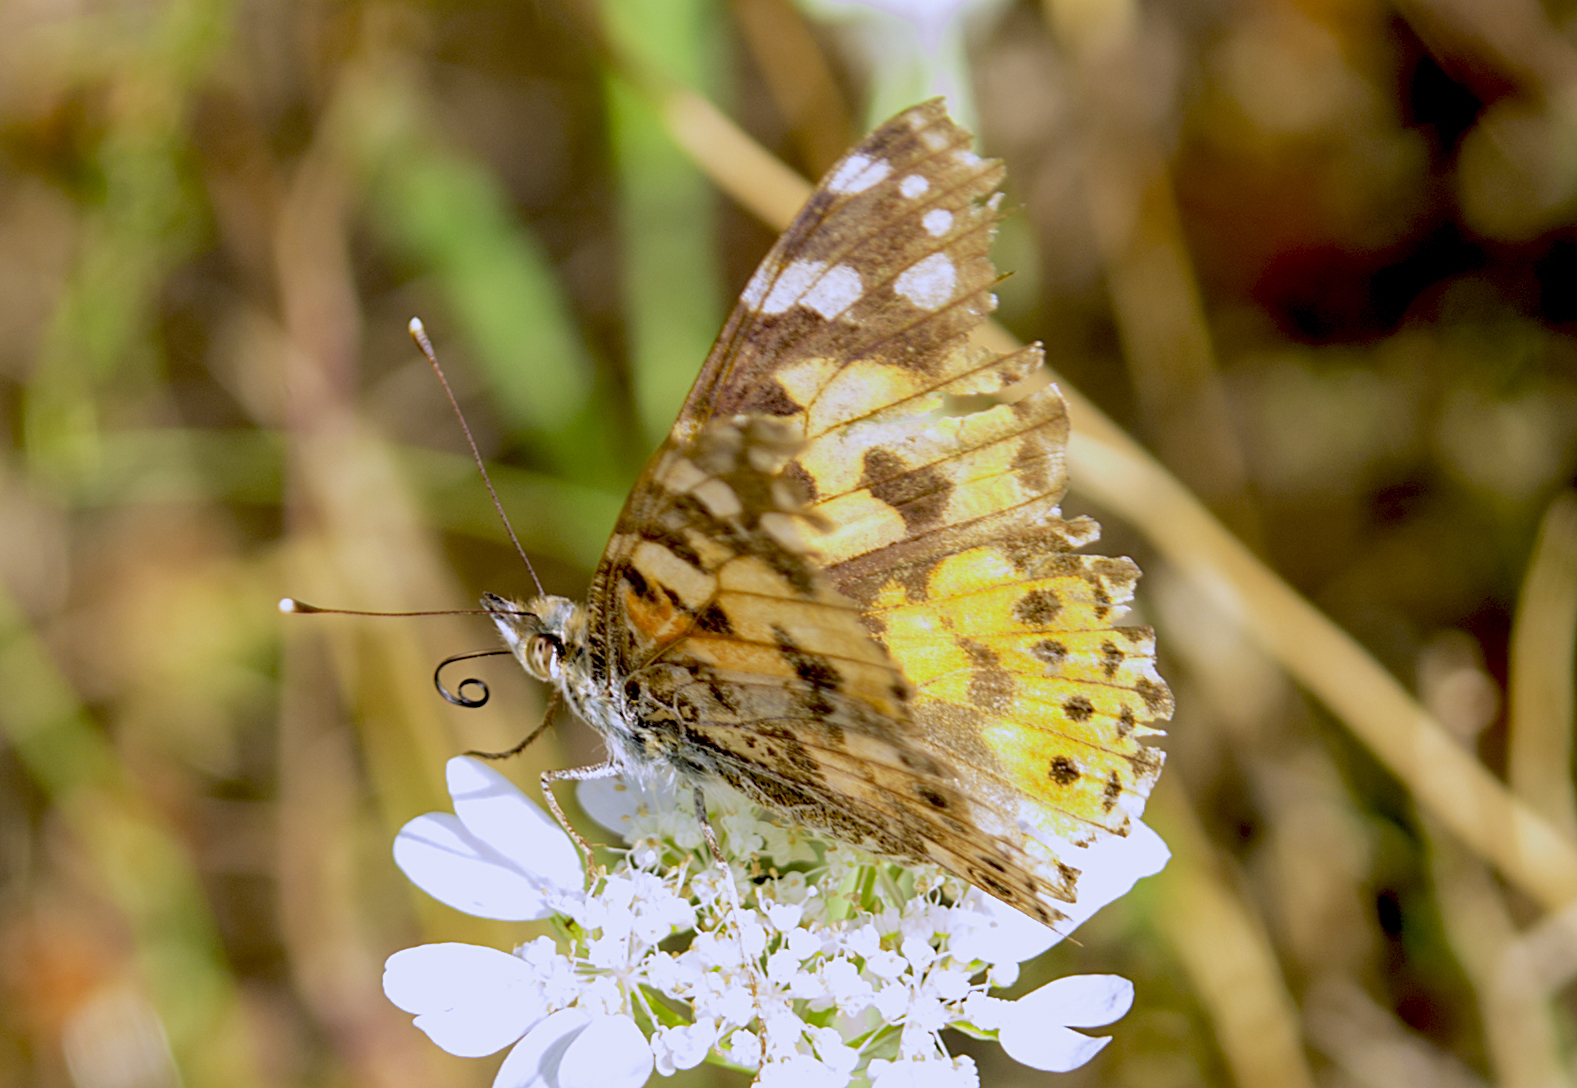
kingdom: Animalia
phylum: Arthropoda
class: Insecta
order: Lepidoptera
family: Nymphalidae
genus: Vanessa
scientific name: Vanessa cardui
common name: Painted lady
